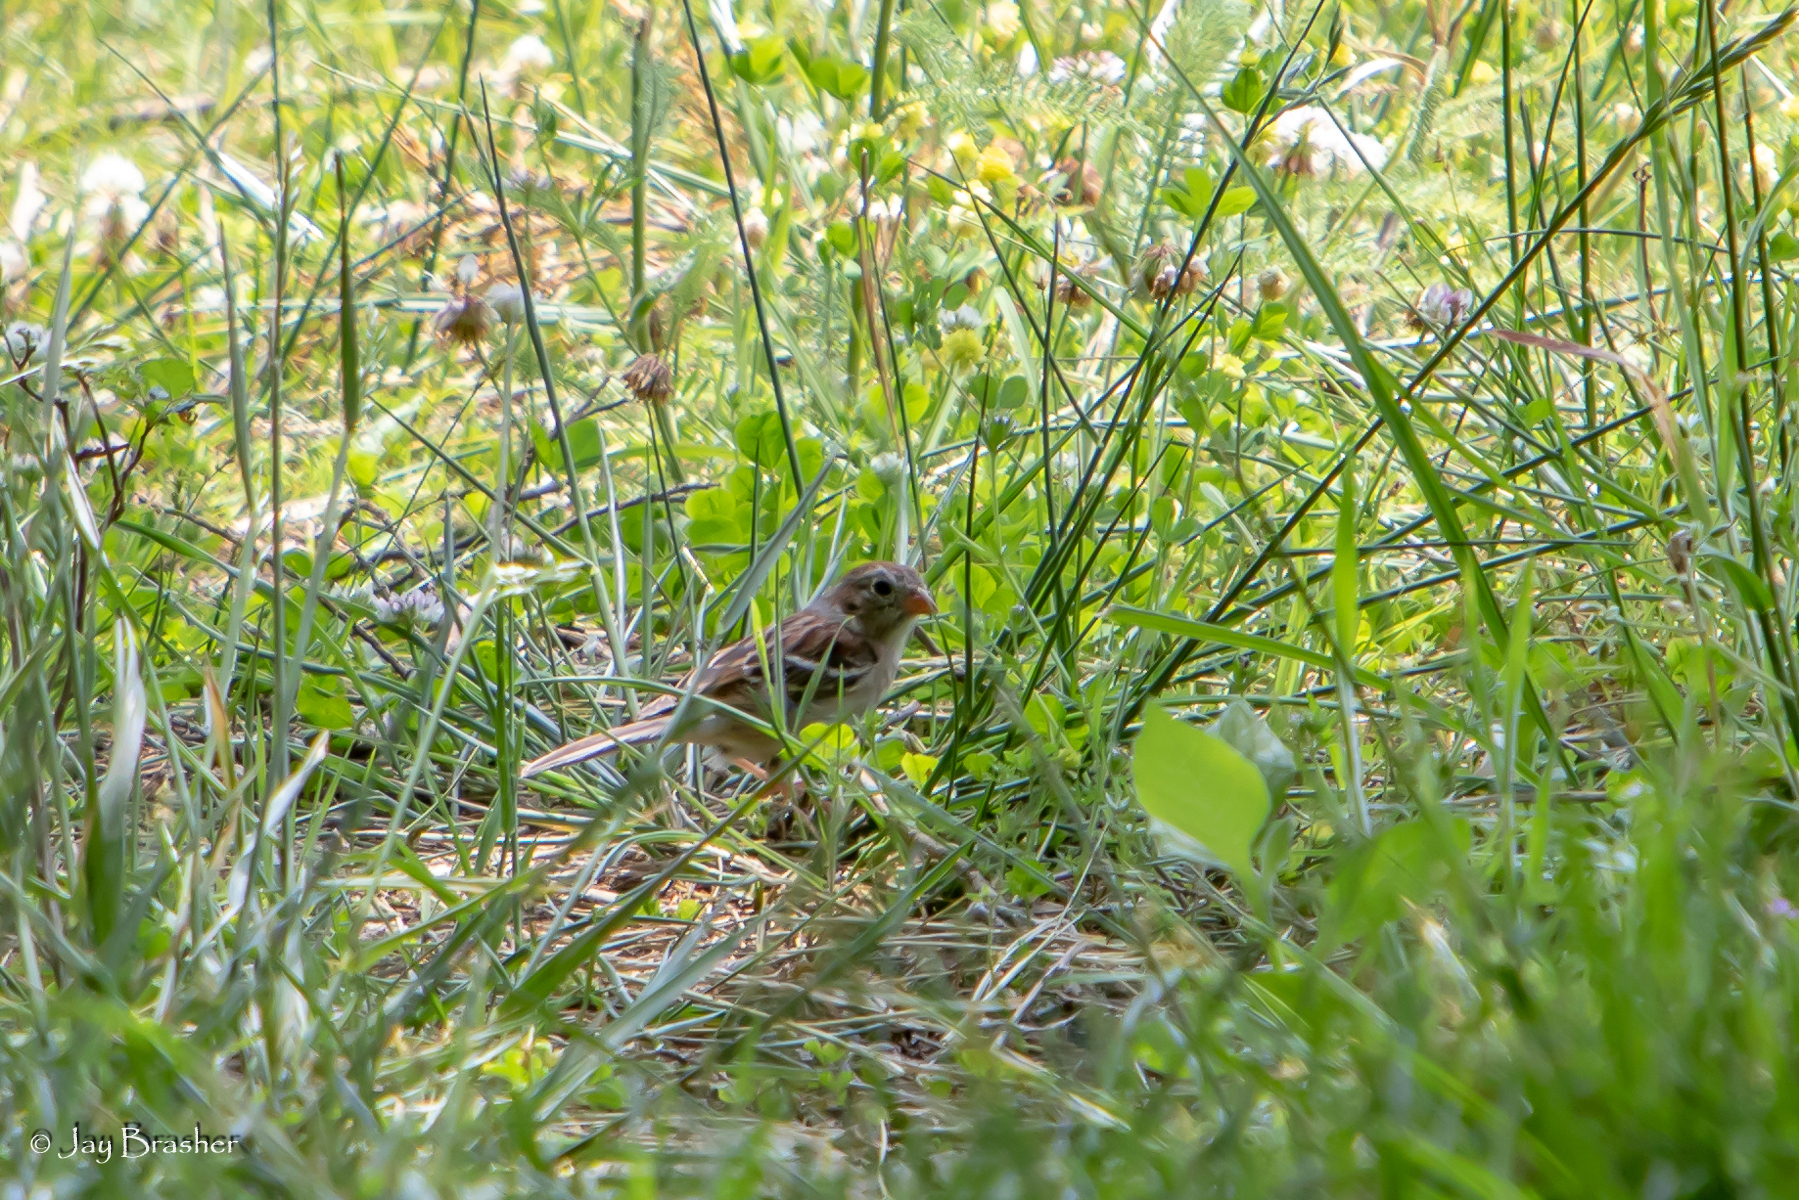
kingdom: Animalia
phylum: Chordata
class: Aves
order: Passeriformes
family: Passerellidae
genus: Spizella
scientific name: Spizella pusilla
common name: Field sparrow
